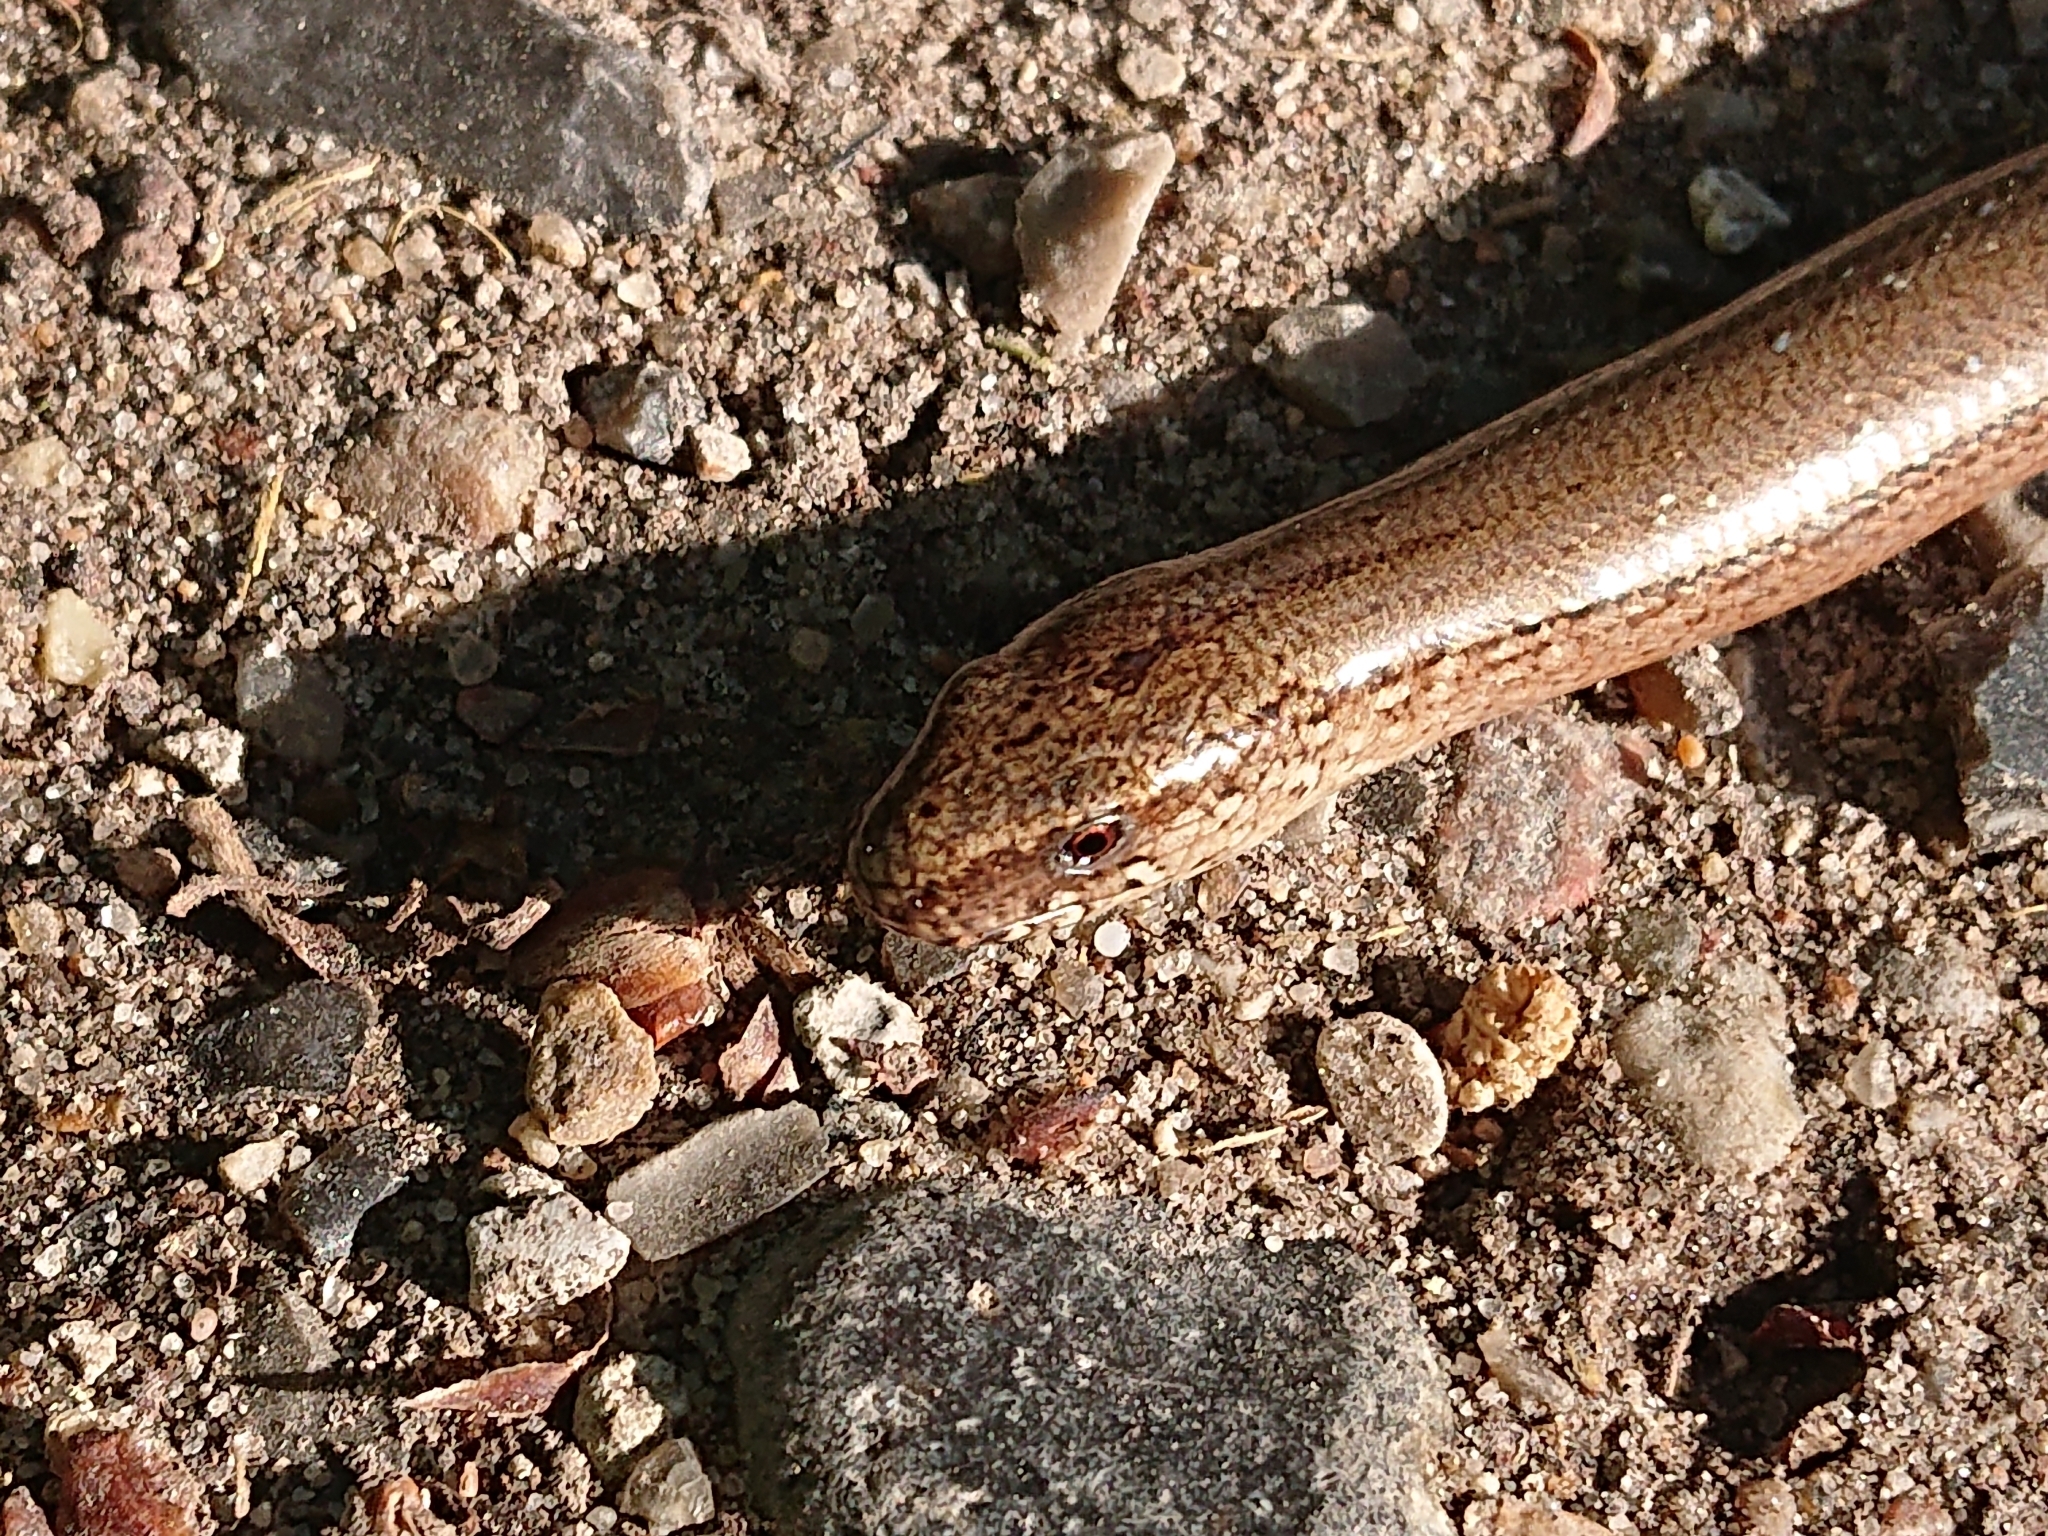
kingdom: Animalia
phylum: Chordata
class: Squamata
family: Anguidae
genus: Anguis
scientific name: Anguis fragilis
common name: Slow worm
